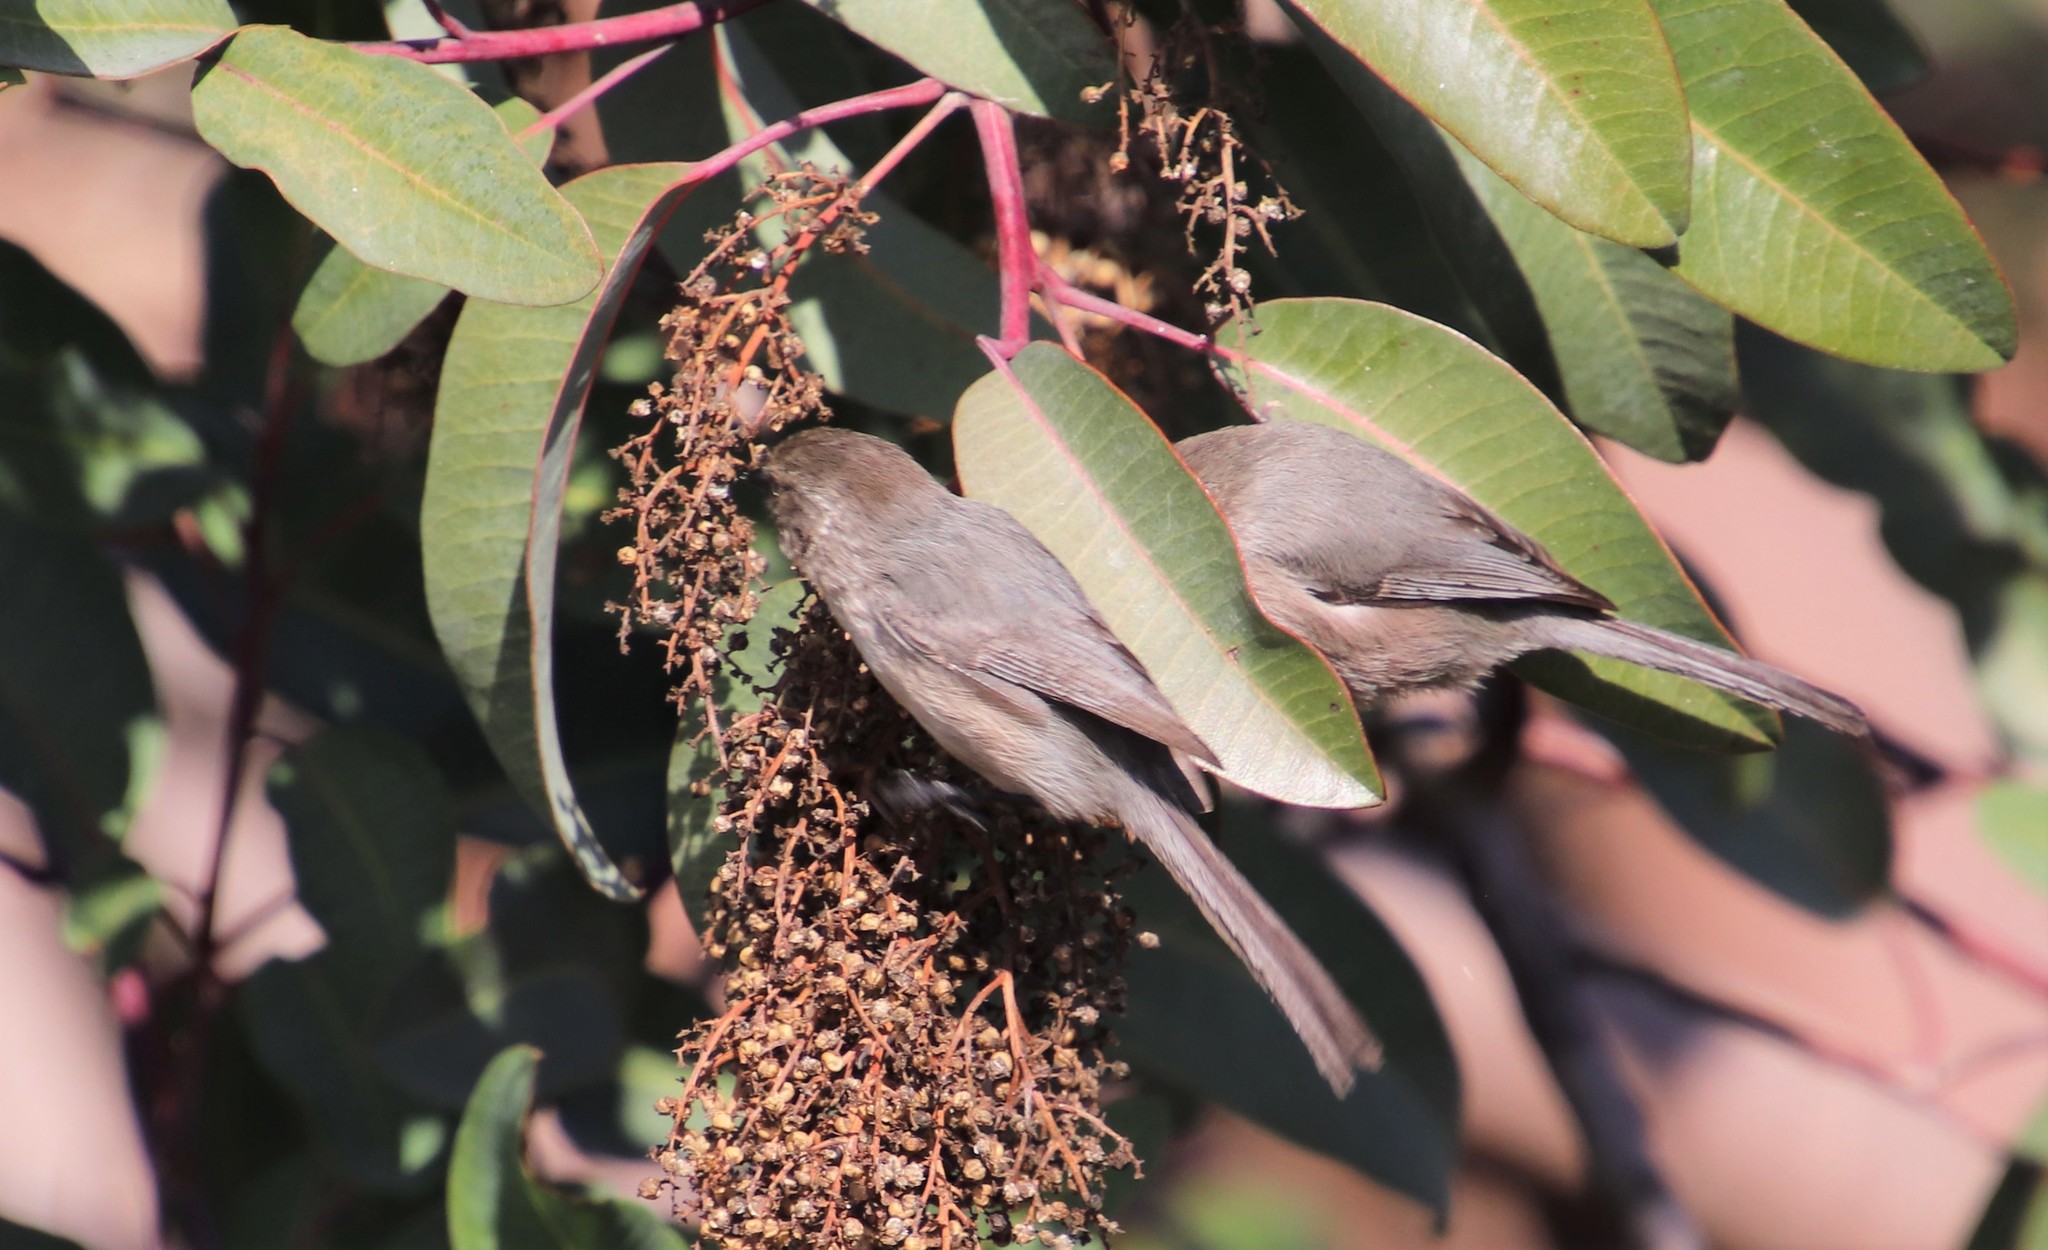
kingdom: Animalia
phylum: Chordata
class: Aves
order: Passeriformes
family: Aegithalidae
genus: Psaltriparus
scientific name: Psaltriparus minimus
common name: American bushtit
